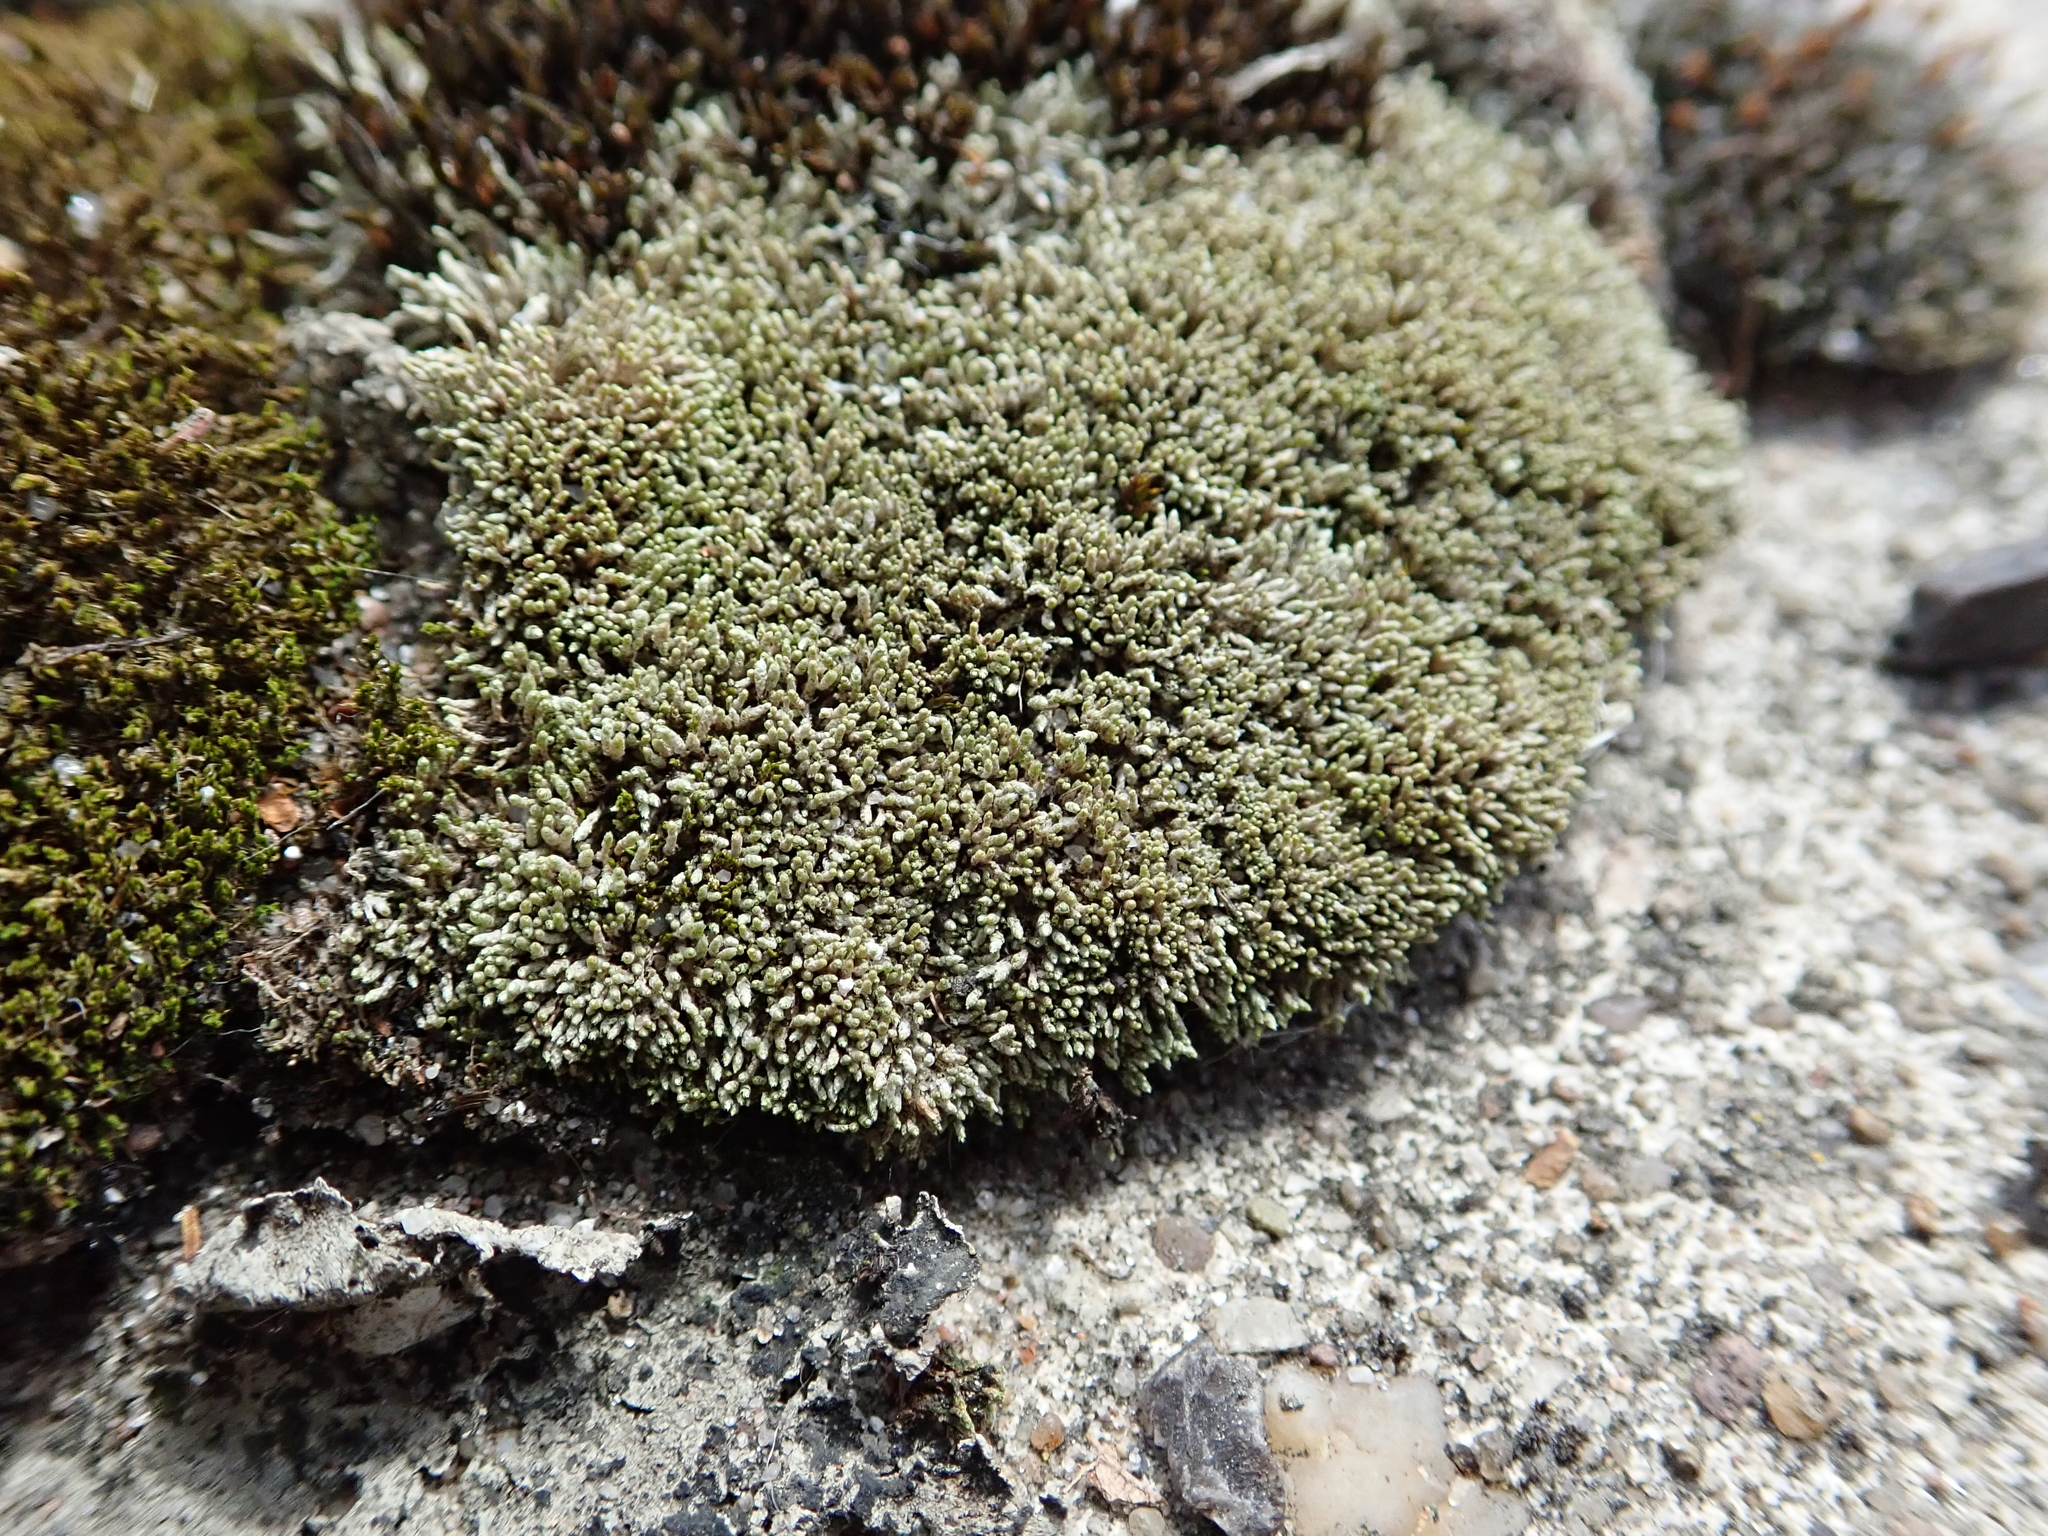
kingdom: Plantae
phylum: Bryophyta
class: Bryopsida
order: Bryales
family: Bryaceae
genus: Bryum
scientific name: Bryum argenteum
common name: Silver-moss
